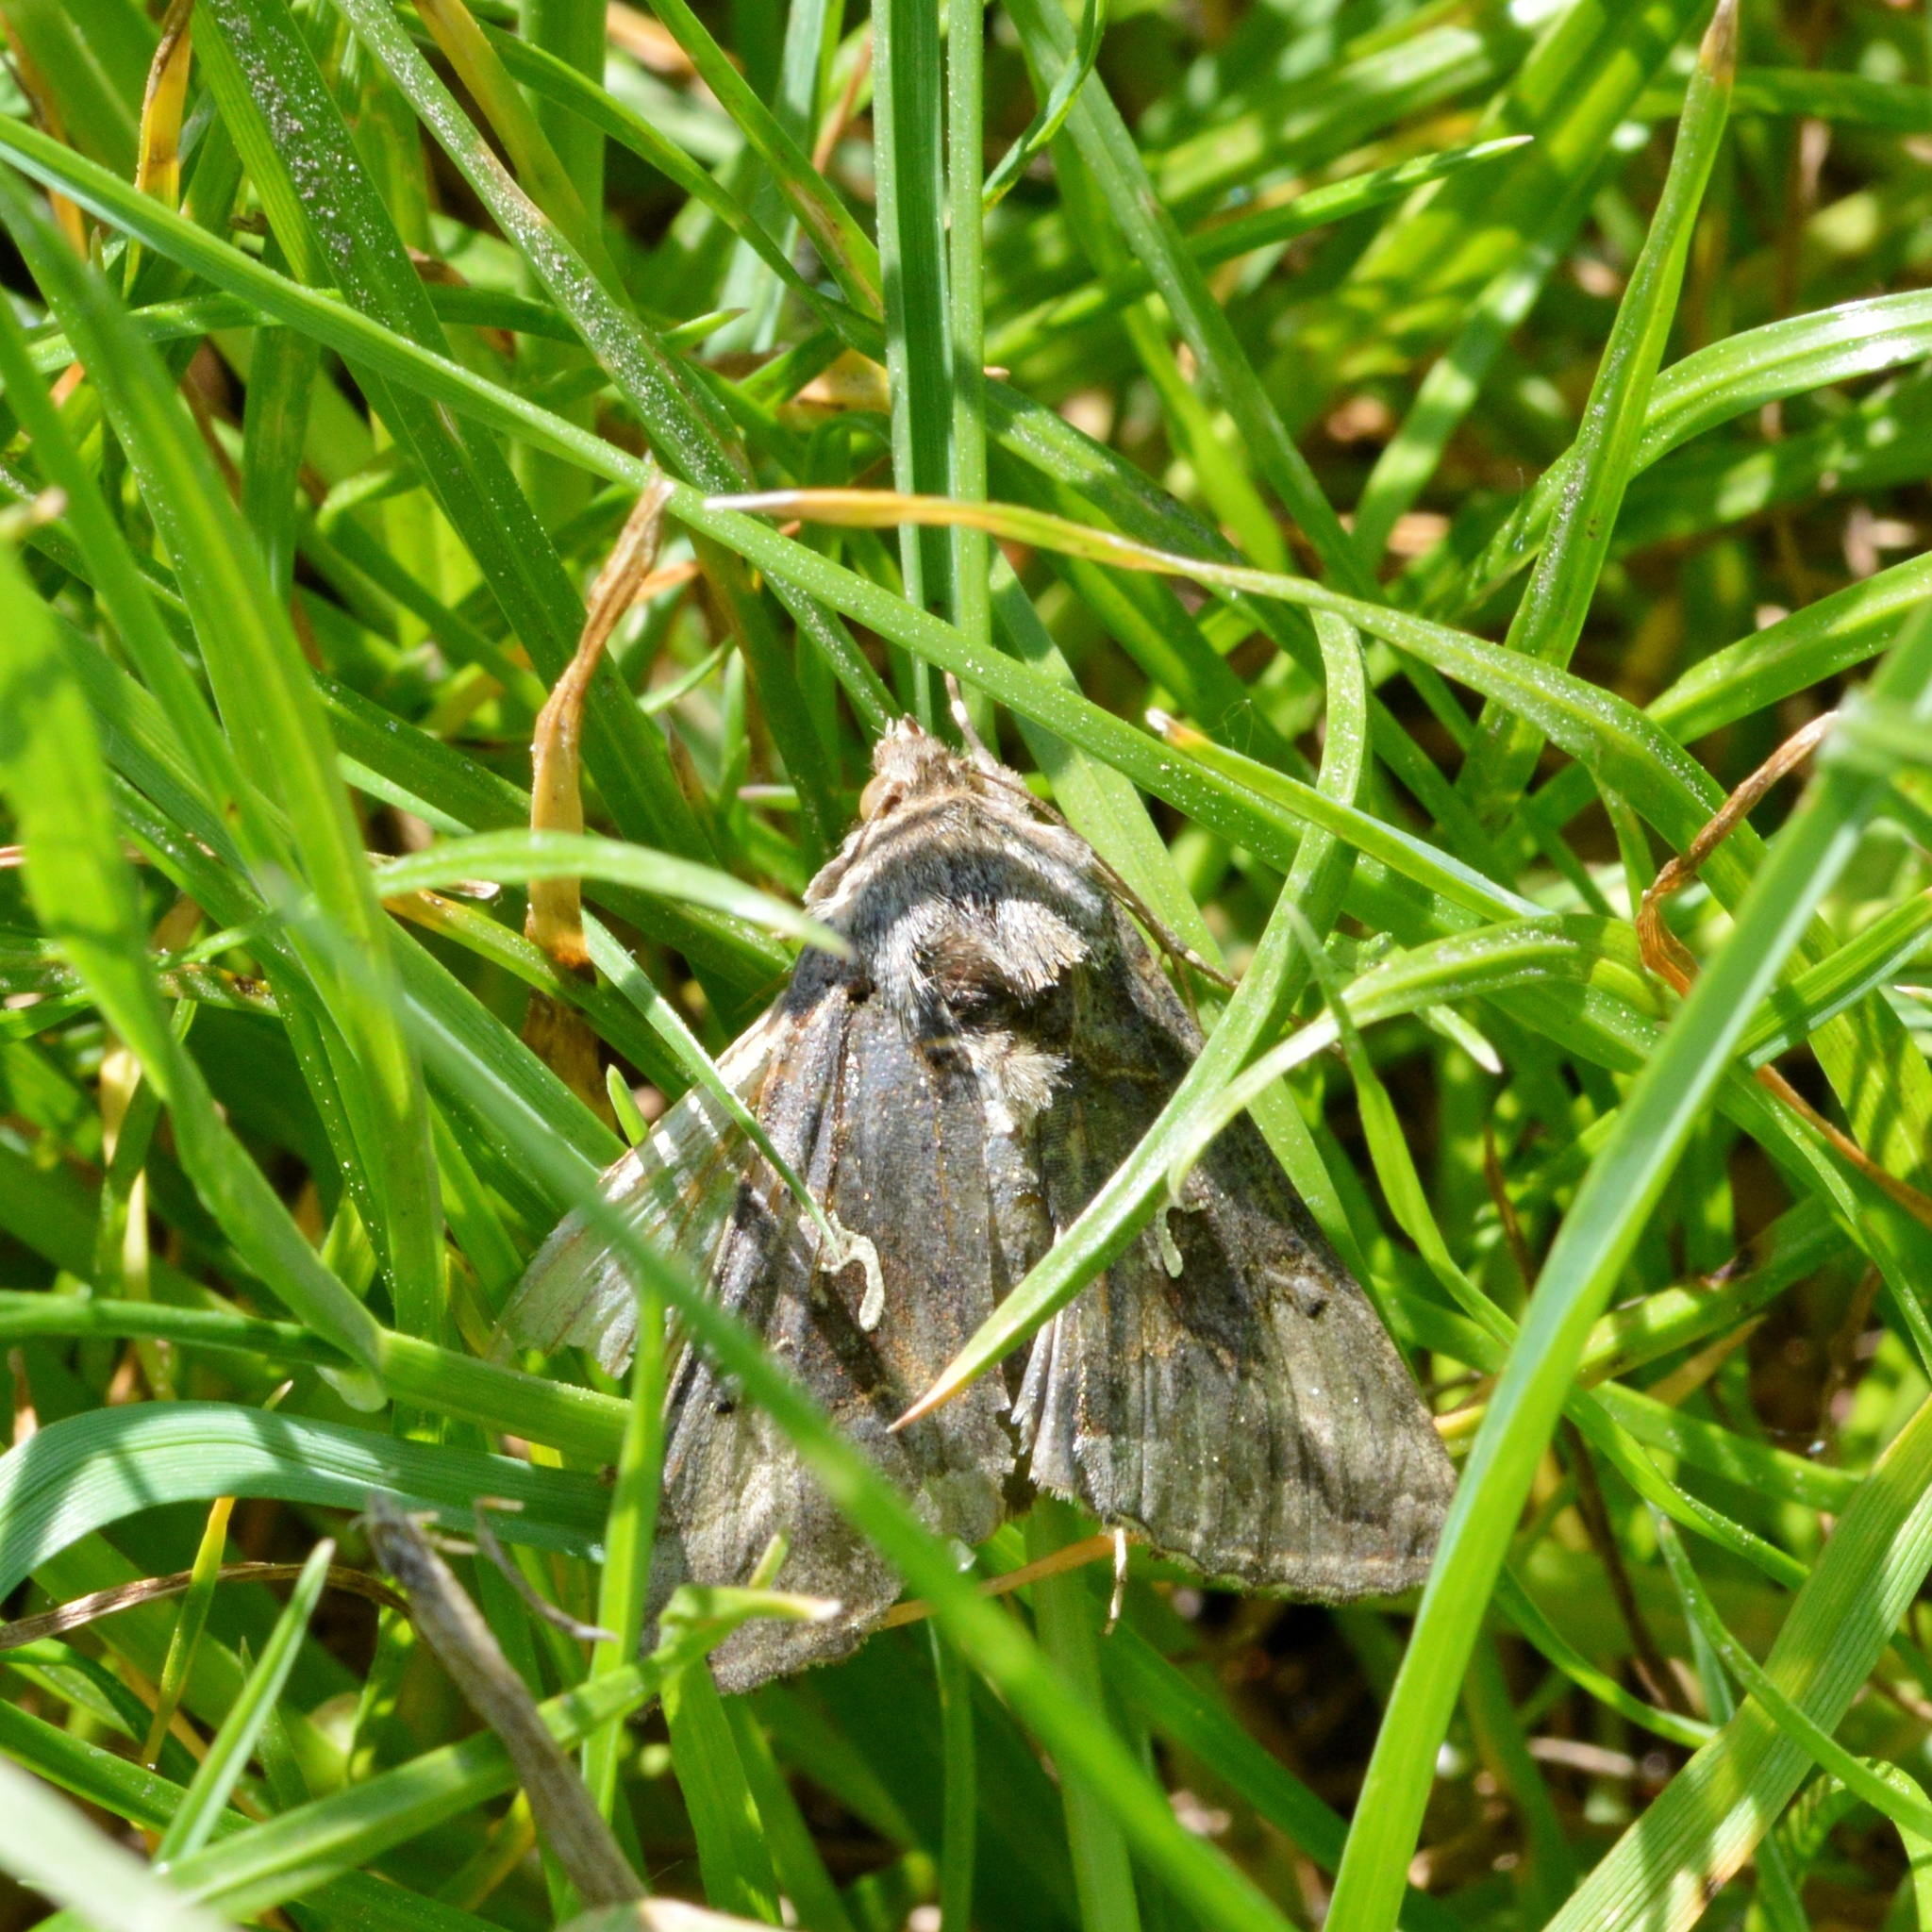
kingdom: Animalia
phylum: Arthropoda
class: Insecta
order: Lepidoptera
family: Noctuidae
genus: Autographa
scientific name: Autographa gamma
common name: Silver y
